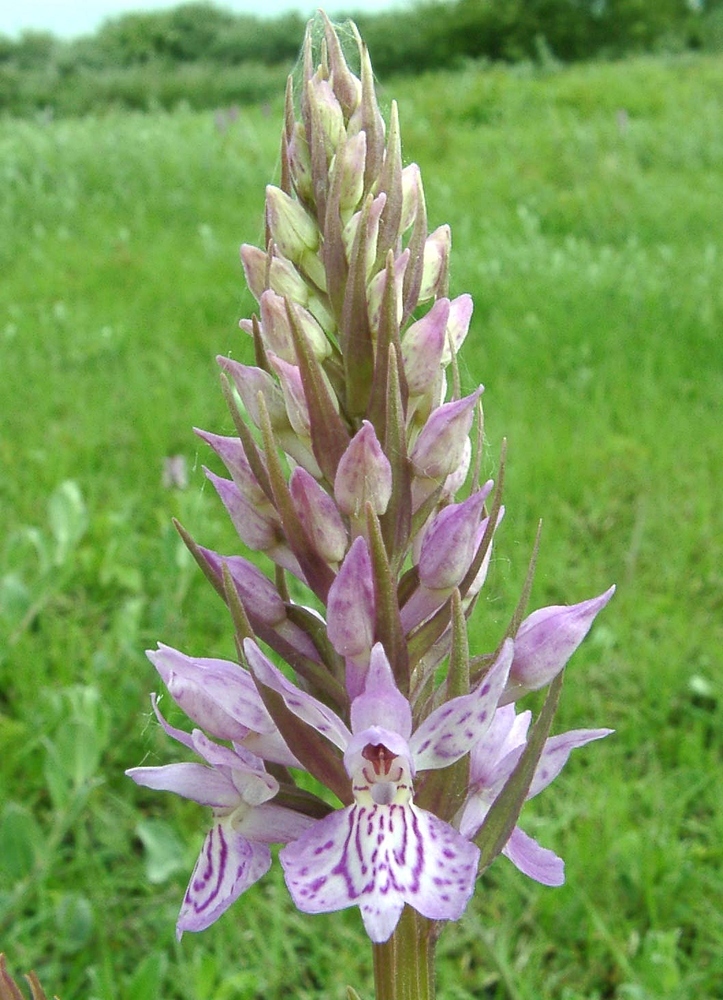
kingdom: Plantae
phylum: Tracheophyta
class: Liliopsida
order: Asparagales
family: Orchidaceae
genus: Dactylorhiza
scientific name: Dactylorhiza maculata
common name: Heath spotted-orchid
